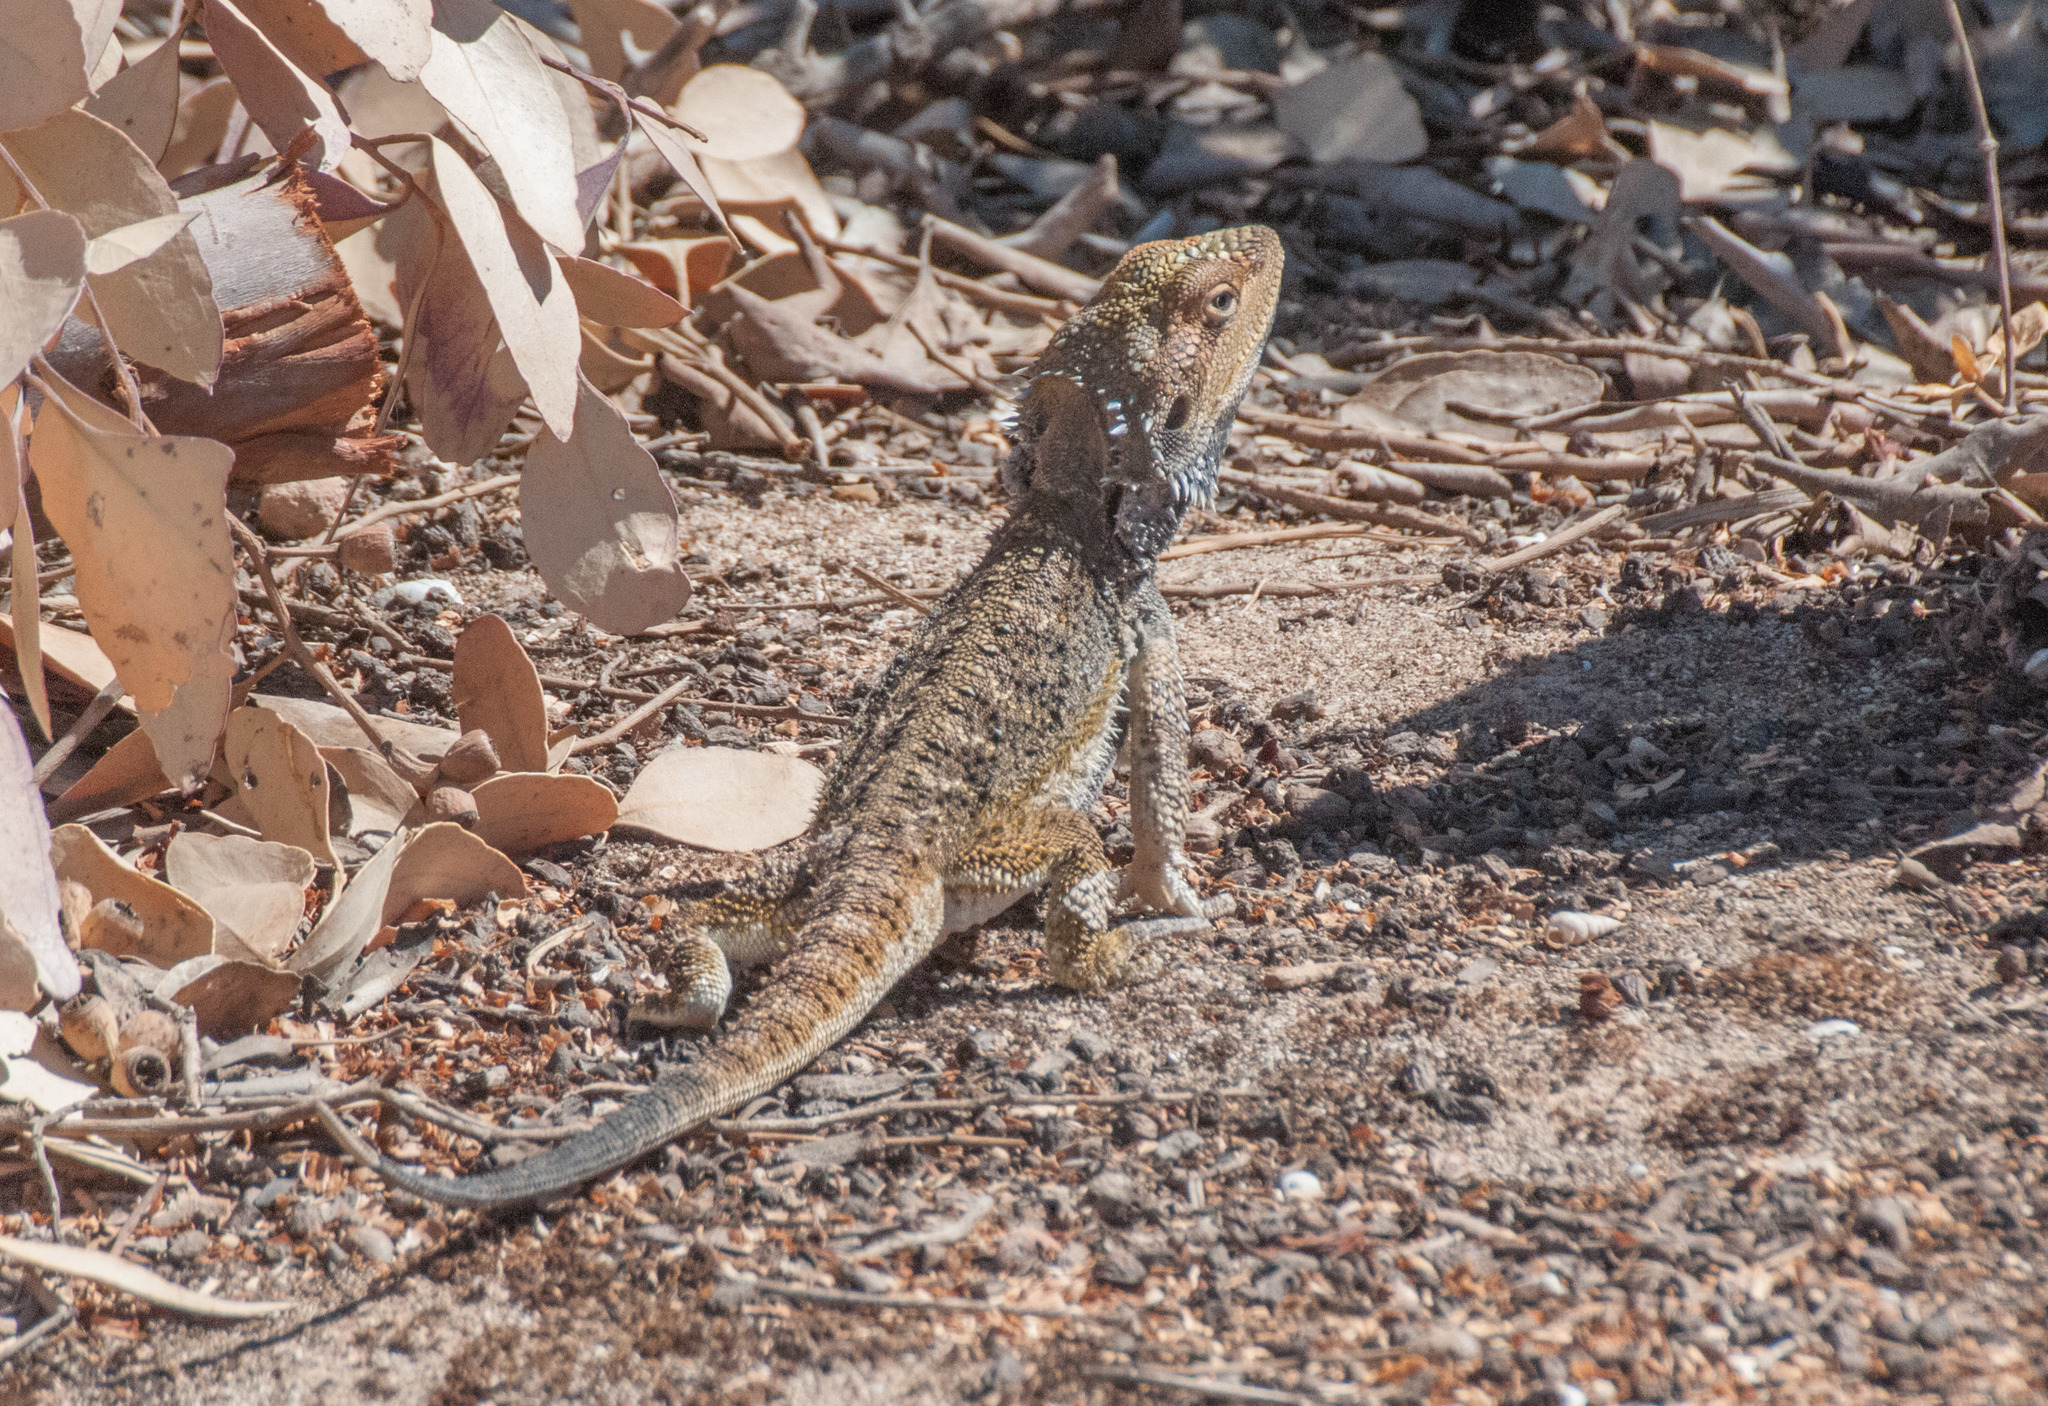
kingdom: Animalia
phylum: Chordata
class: Squamata
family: Agamidae
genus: Pogona
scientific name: Pogona barbata
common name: Bearded dragon
